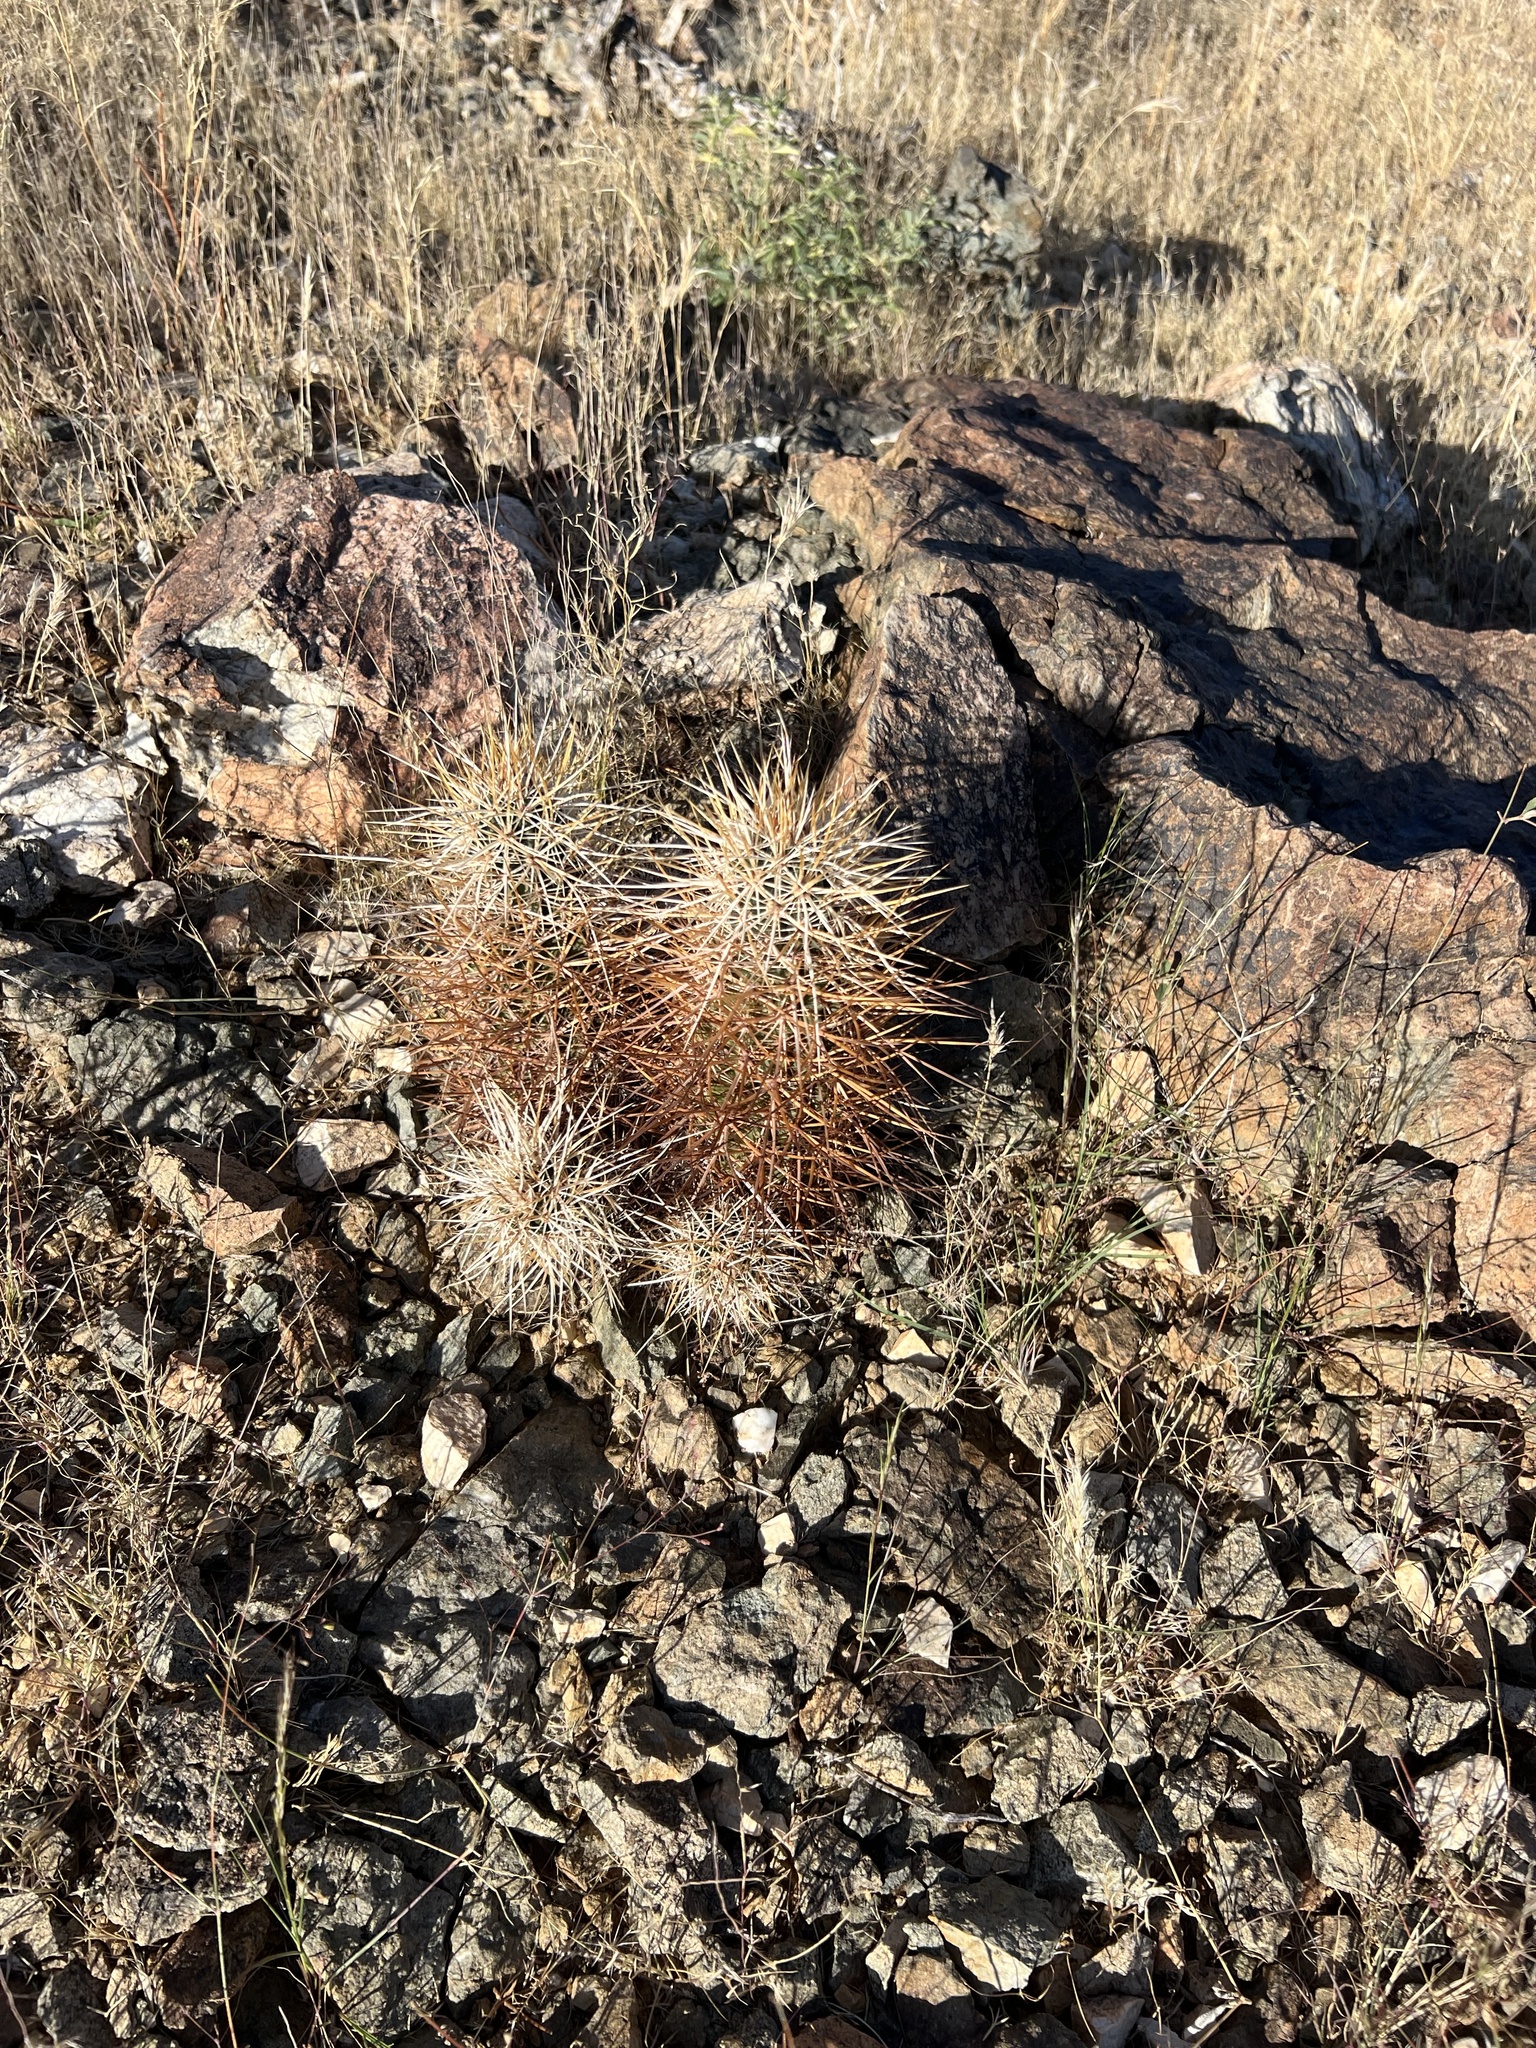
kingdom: Plantae
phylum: Tracheophyta
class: Magnoliopsida
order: Caryophyllales
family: Cactaceae
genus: Echinocereus
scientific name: Echinocereus engelmannii
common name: Engelmann's hedgehog cactus
